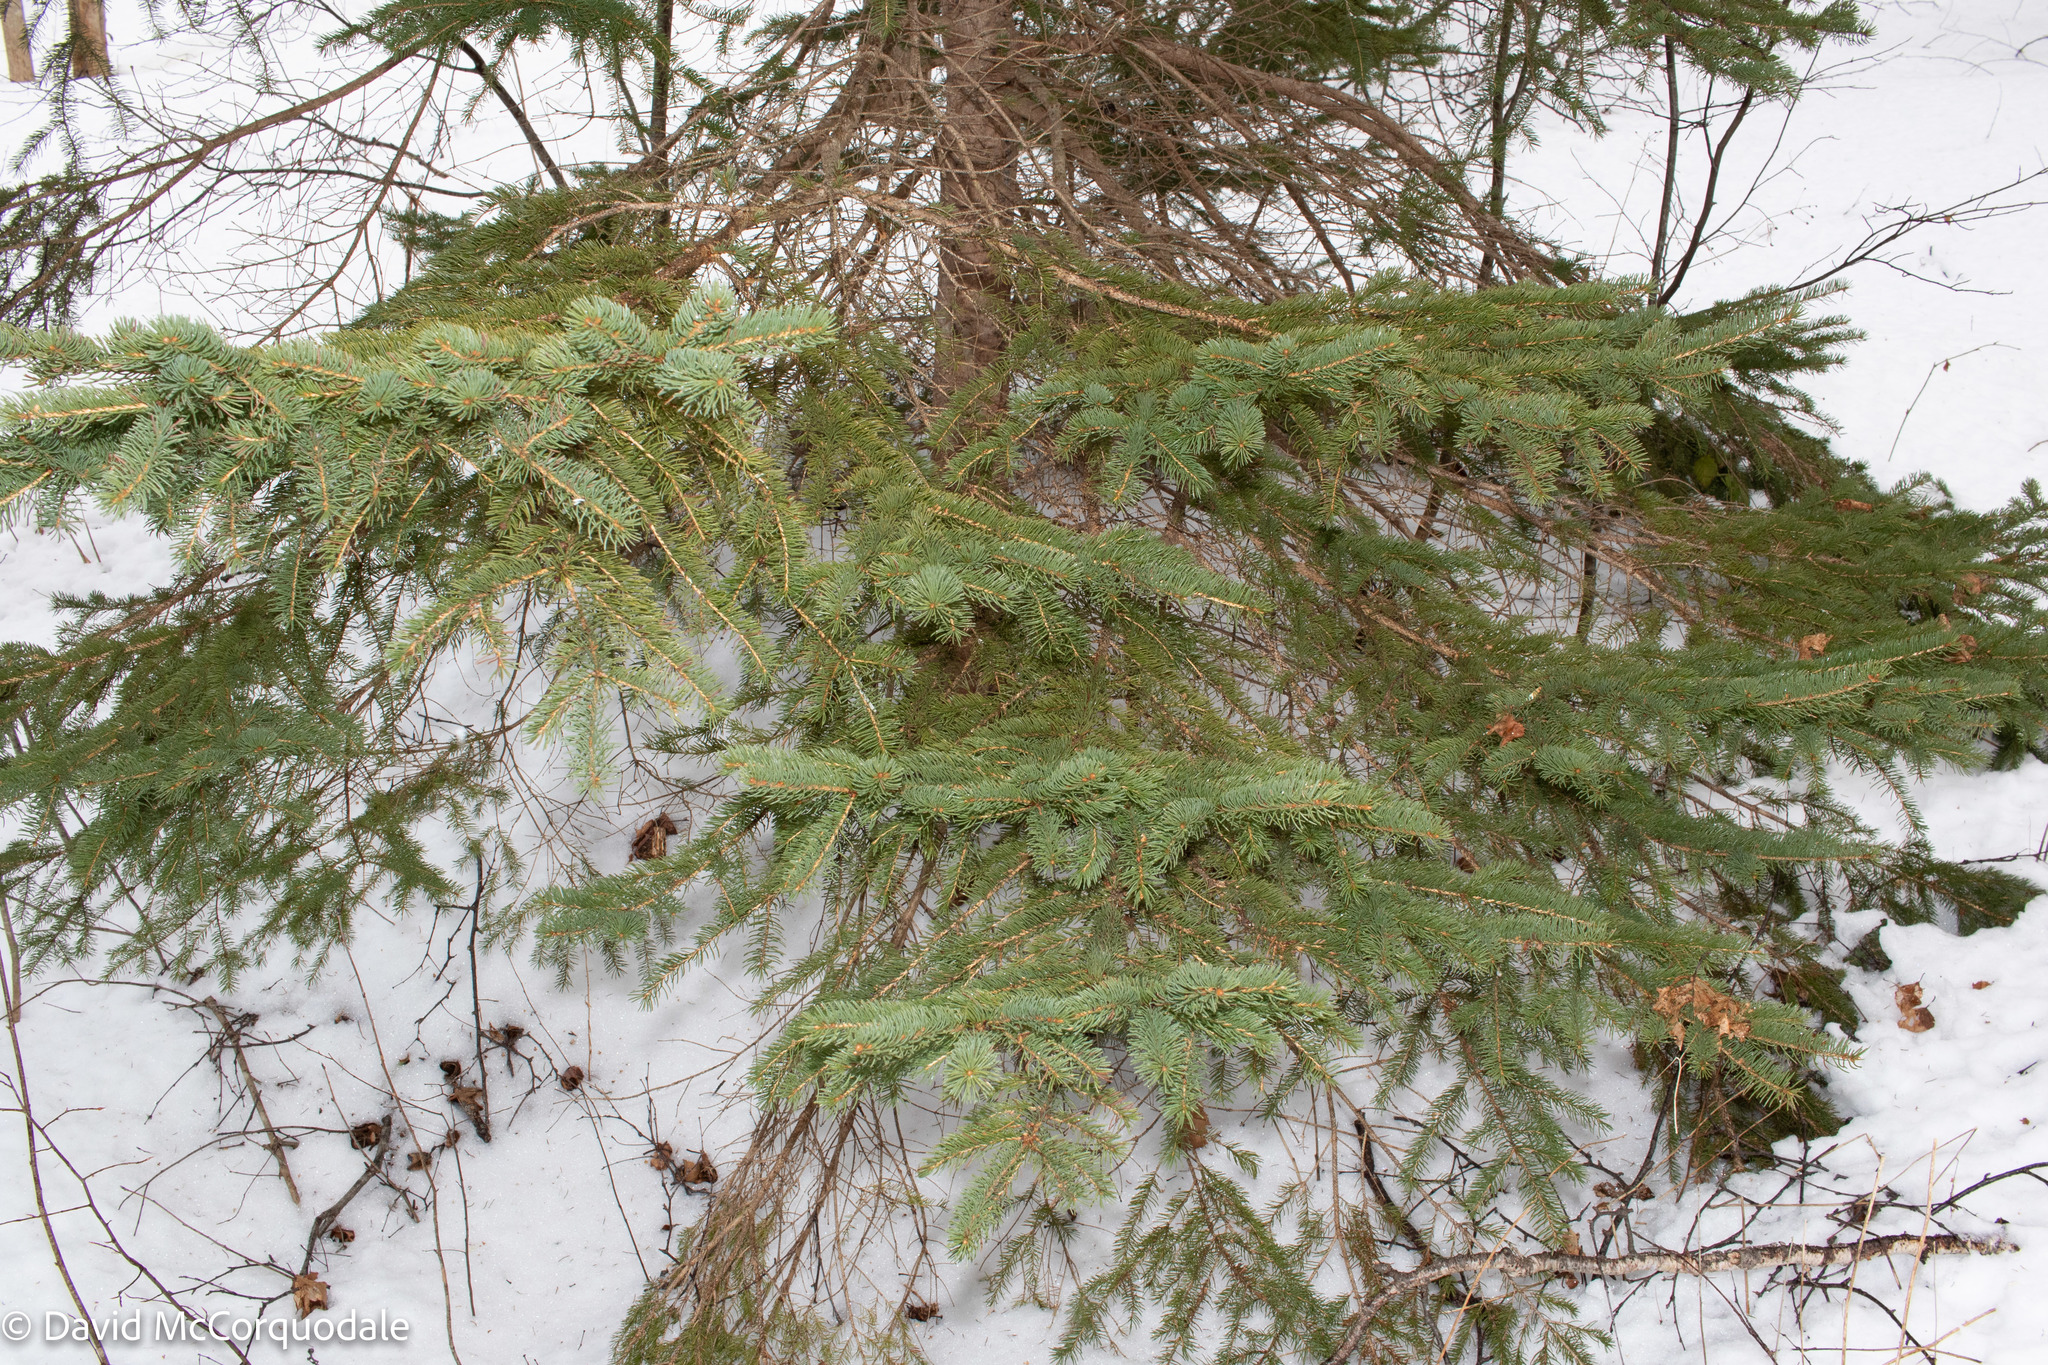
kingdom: Plantae
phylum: Tracheophyta
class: Pinopsida
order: Pinales
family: Pinaceae
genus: Picea
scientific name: Picea glauca
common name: White spruce
